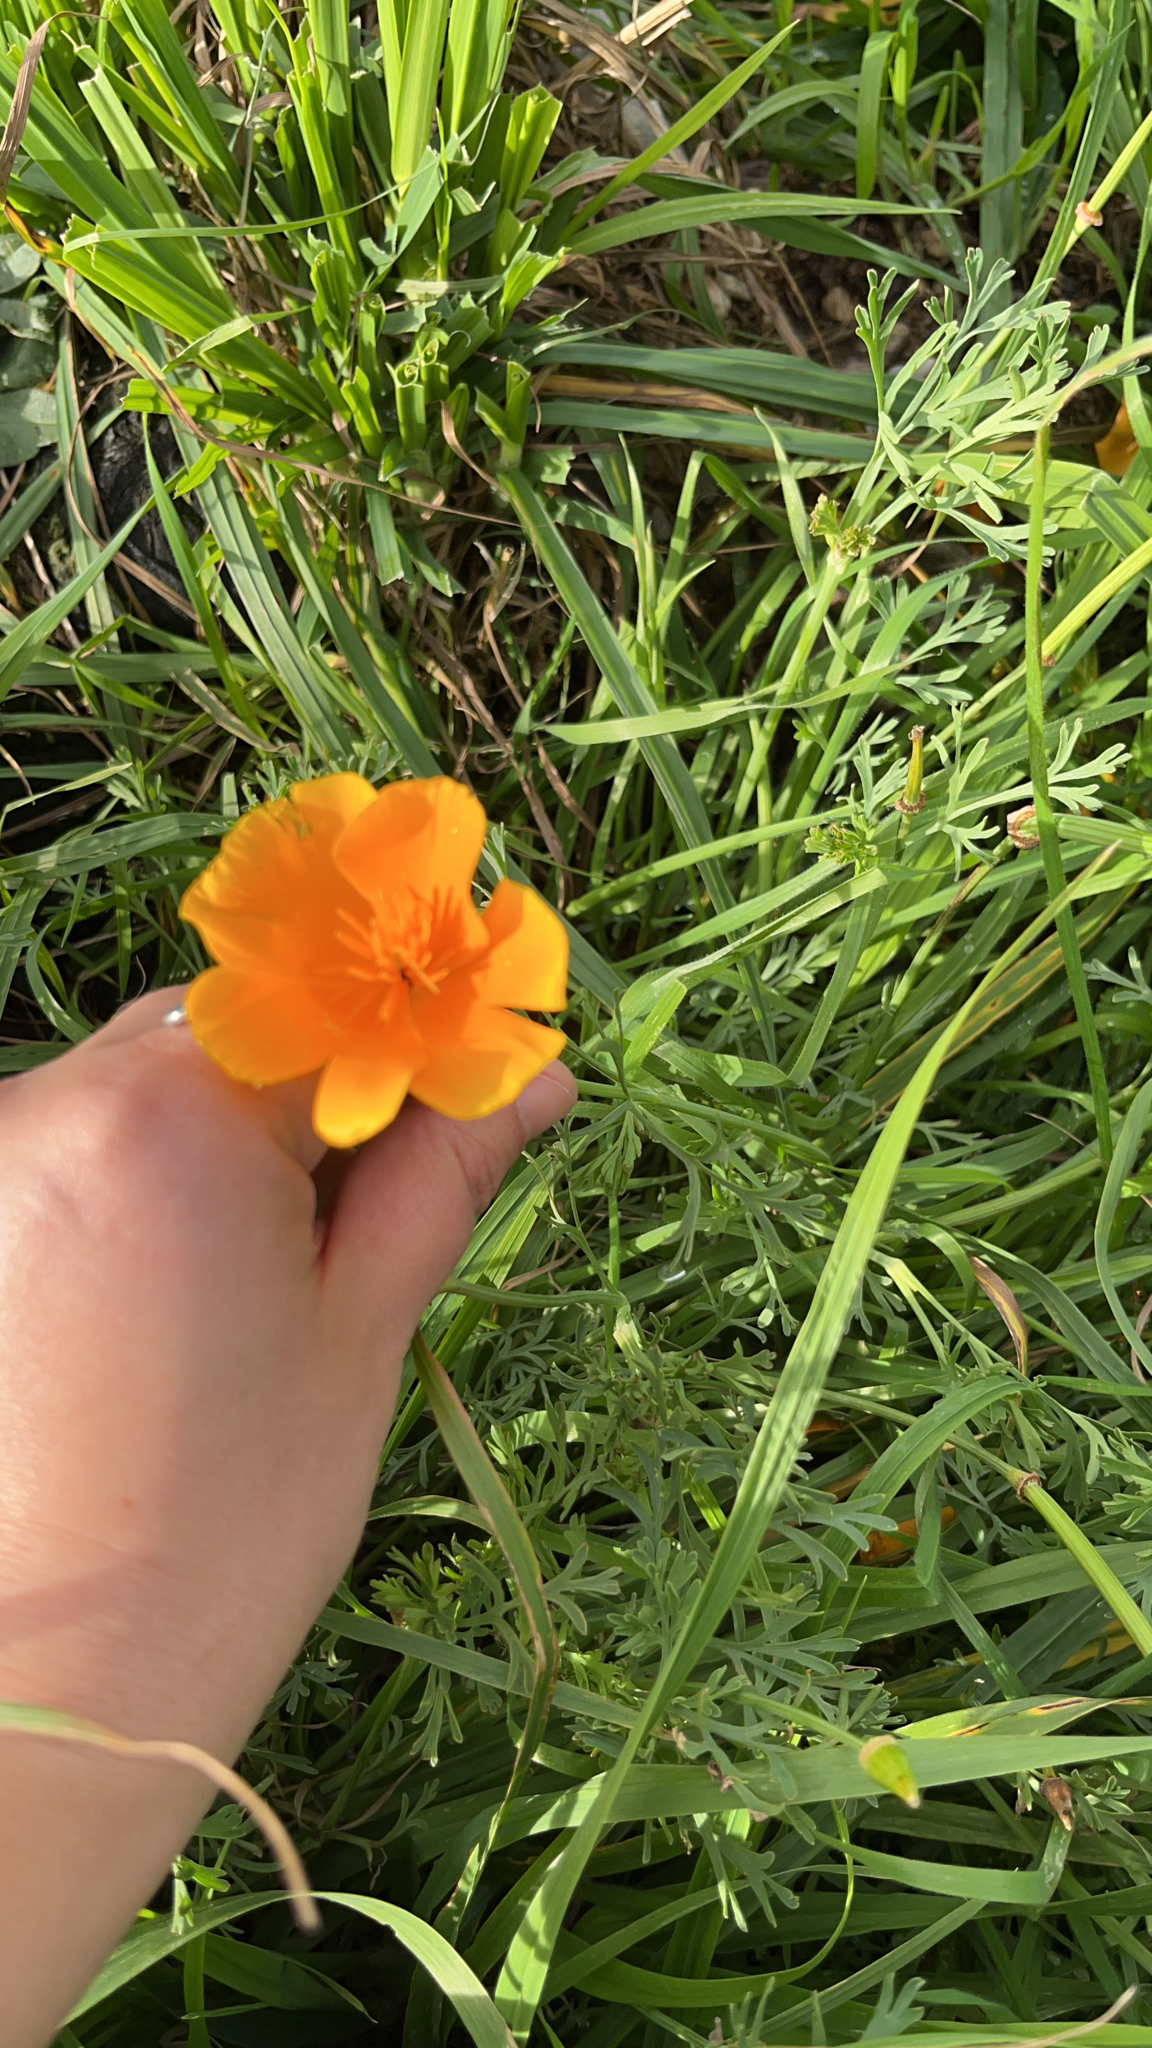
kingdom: Plantae
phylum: Tracheophyta
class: Magnoliopsida
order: Ranunculales
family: Papaveraceae
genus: Eschscholzia
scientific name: Eschscholzia californica
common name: California poppy
